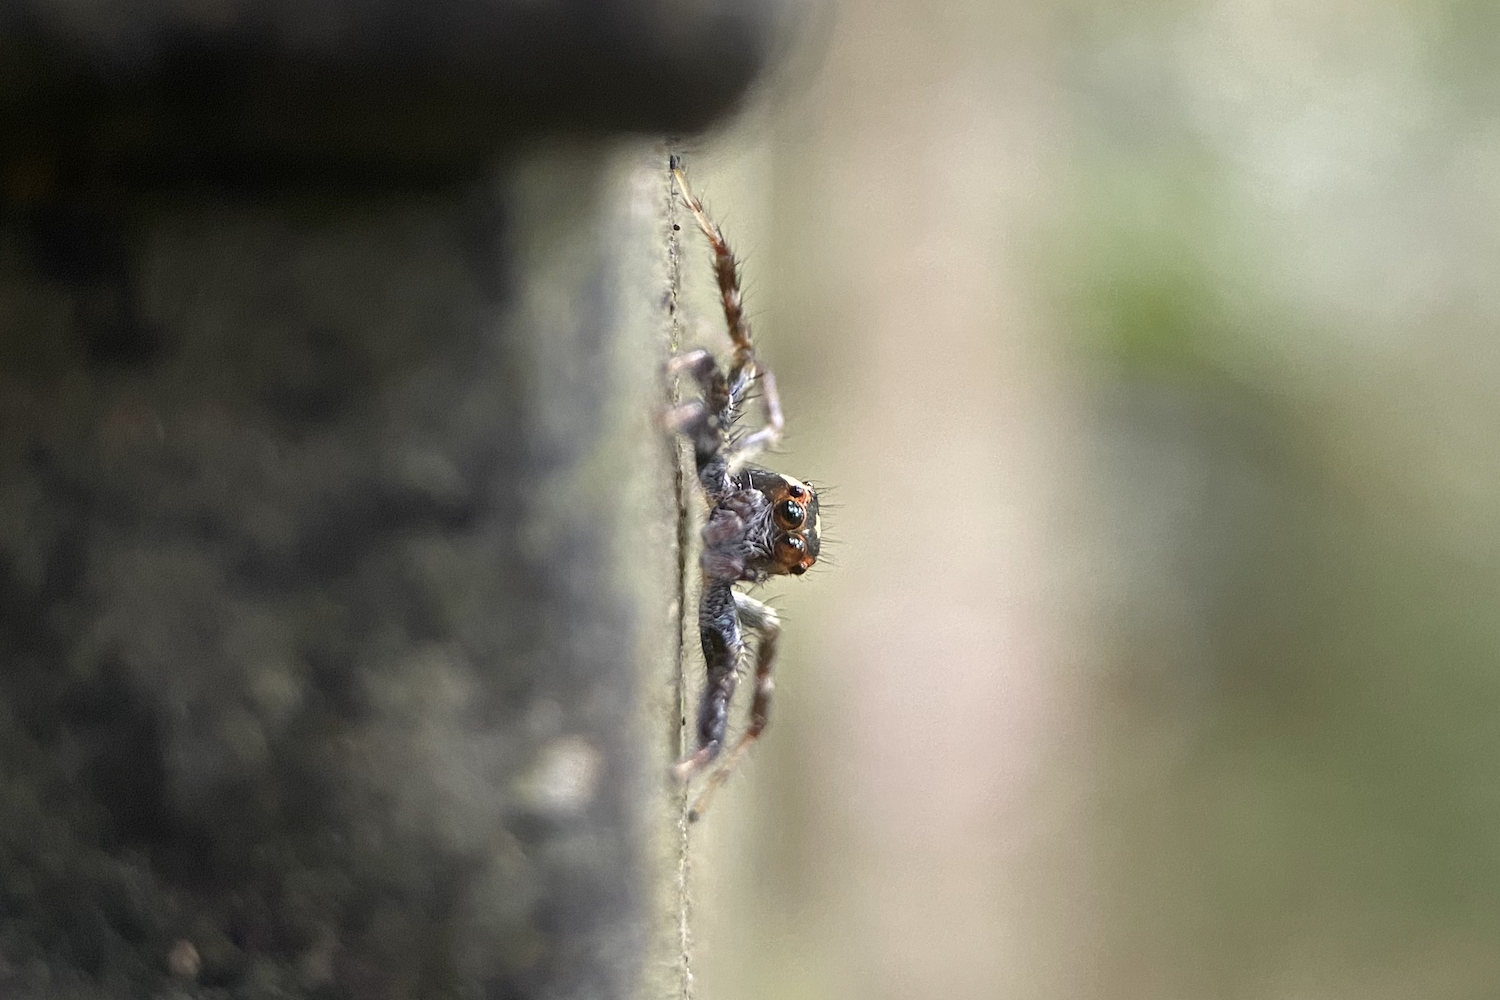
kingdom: Animalia
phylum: Arthropoda
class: Arachnida
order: Araneae
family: Salticidae
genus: Telamonia
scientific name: Telamonia caprina
